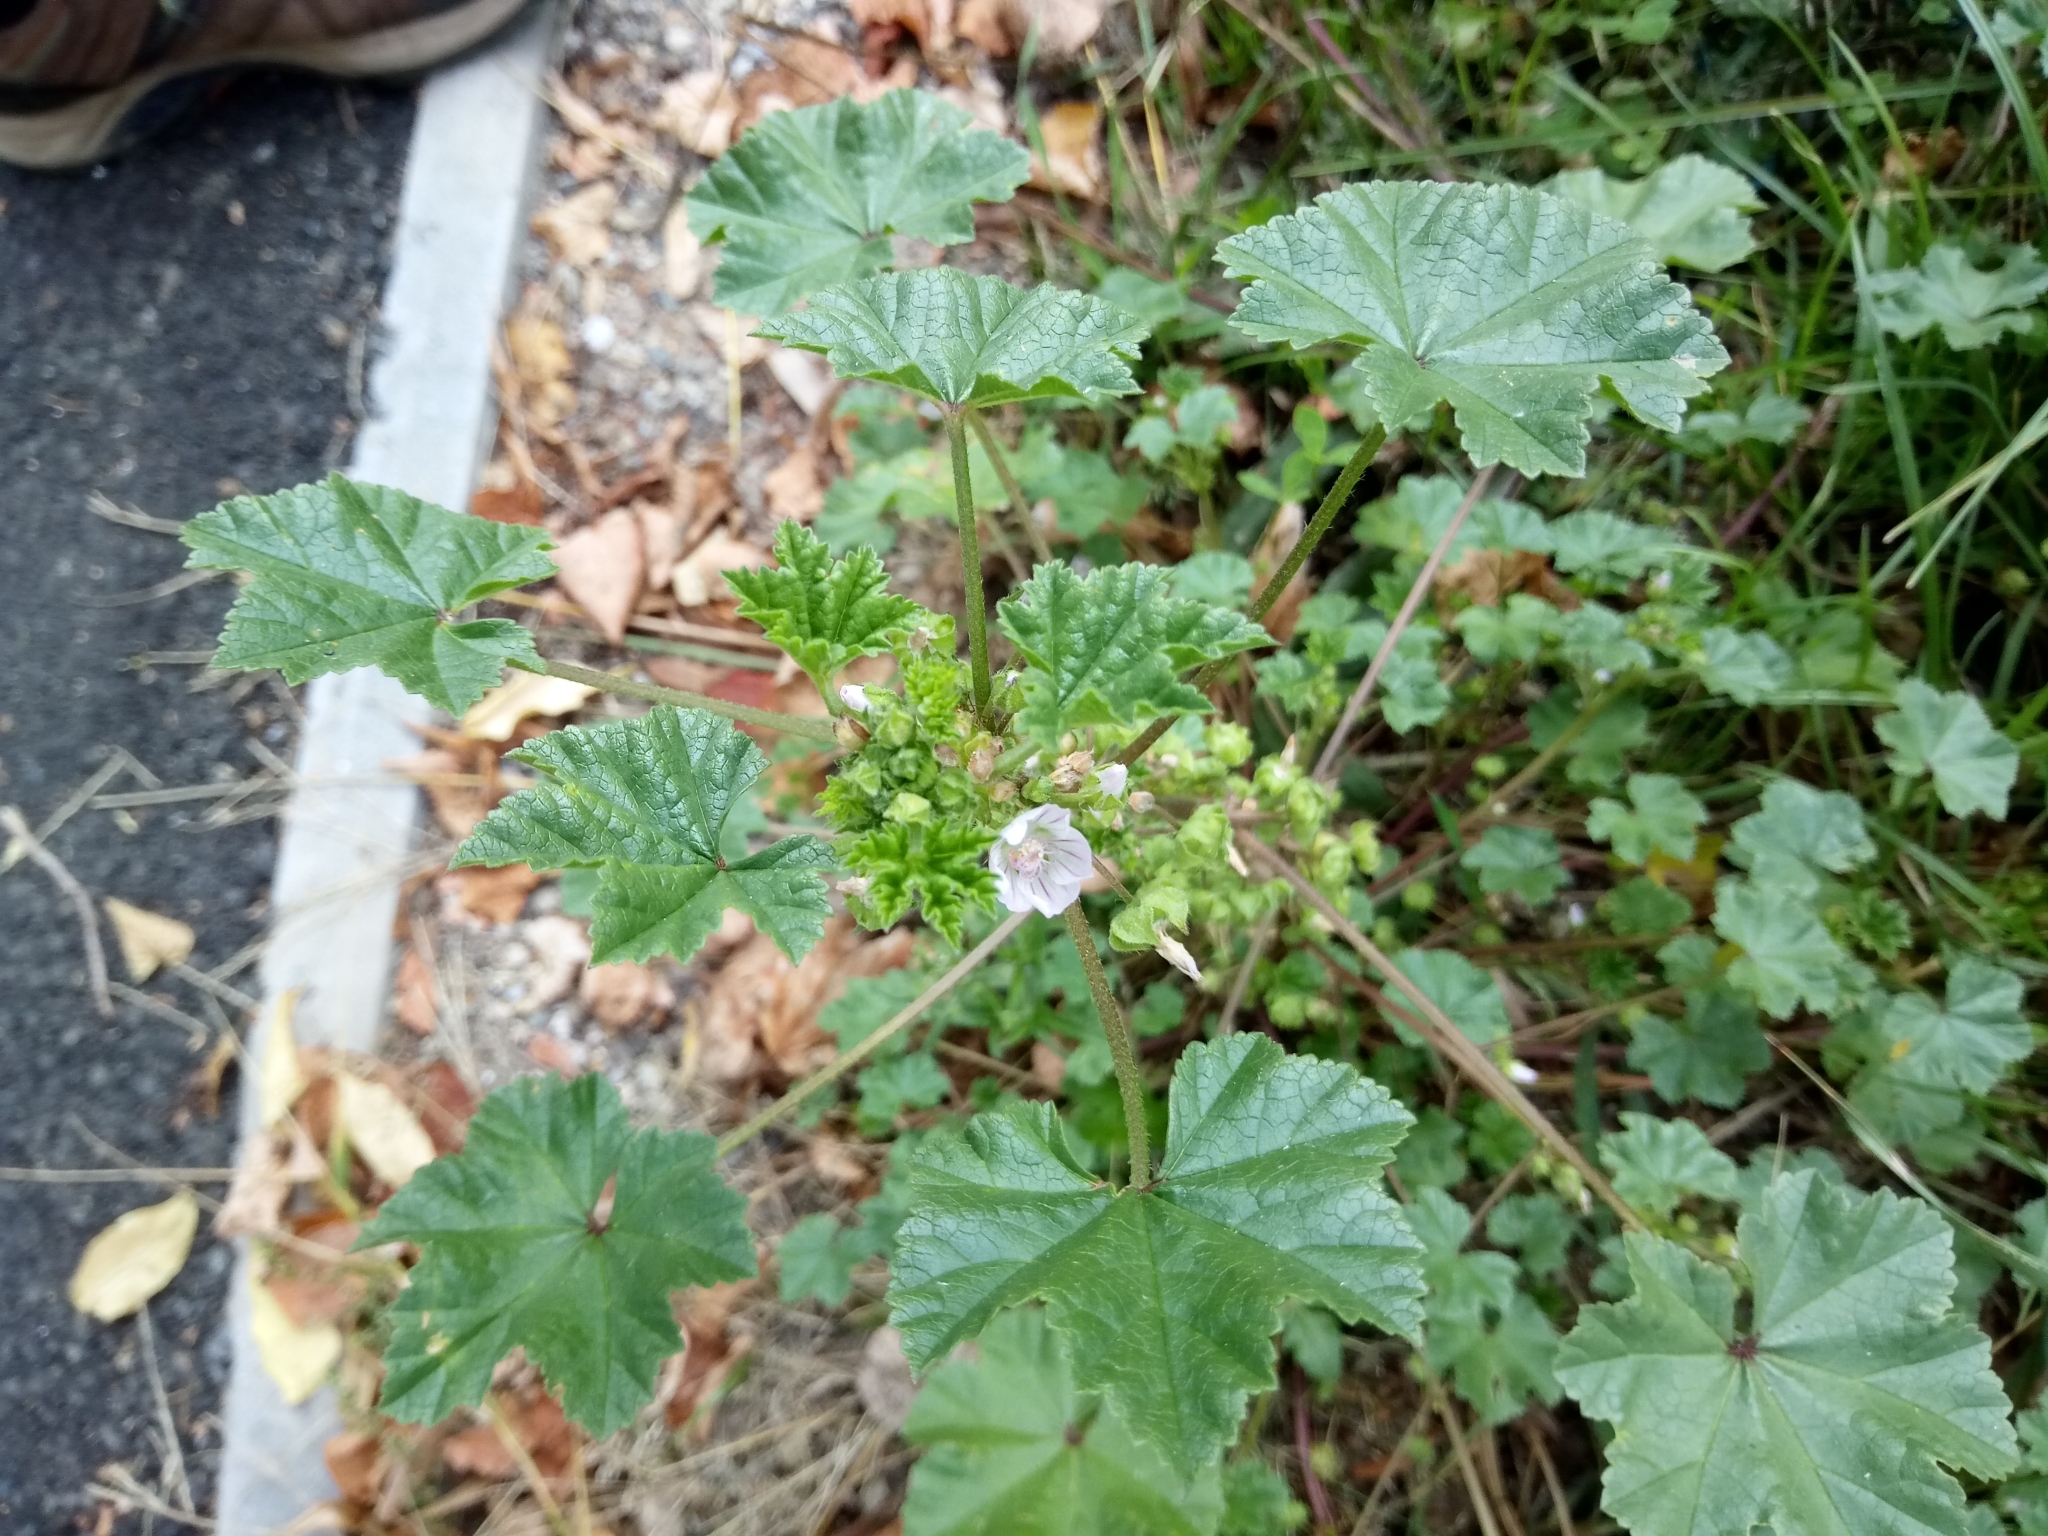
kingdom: Plantae
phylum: Tracheophyta
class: Magnoliopsida
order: Malvales
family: Malvaceae
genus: Malva
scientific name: Malva neglecta
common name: Common mallow
